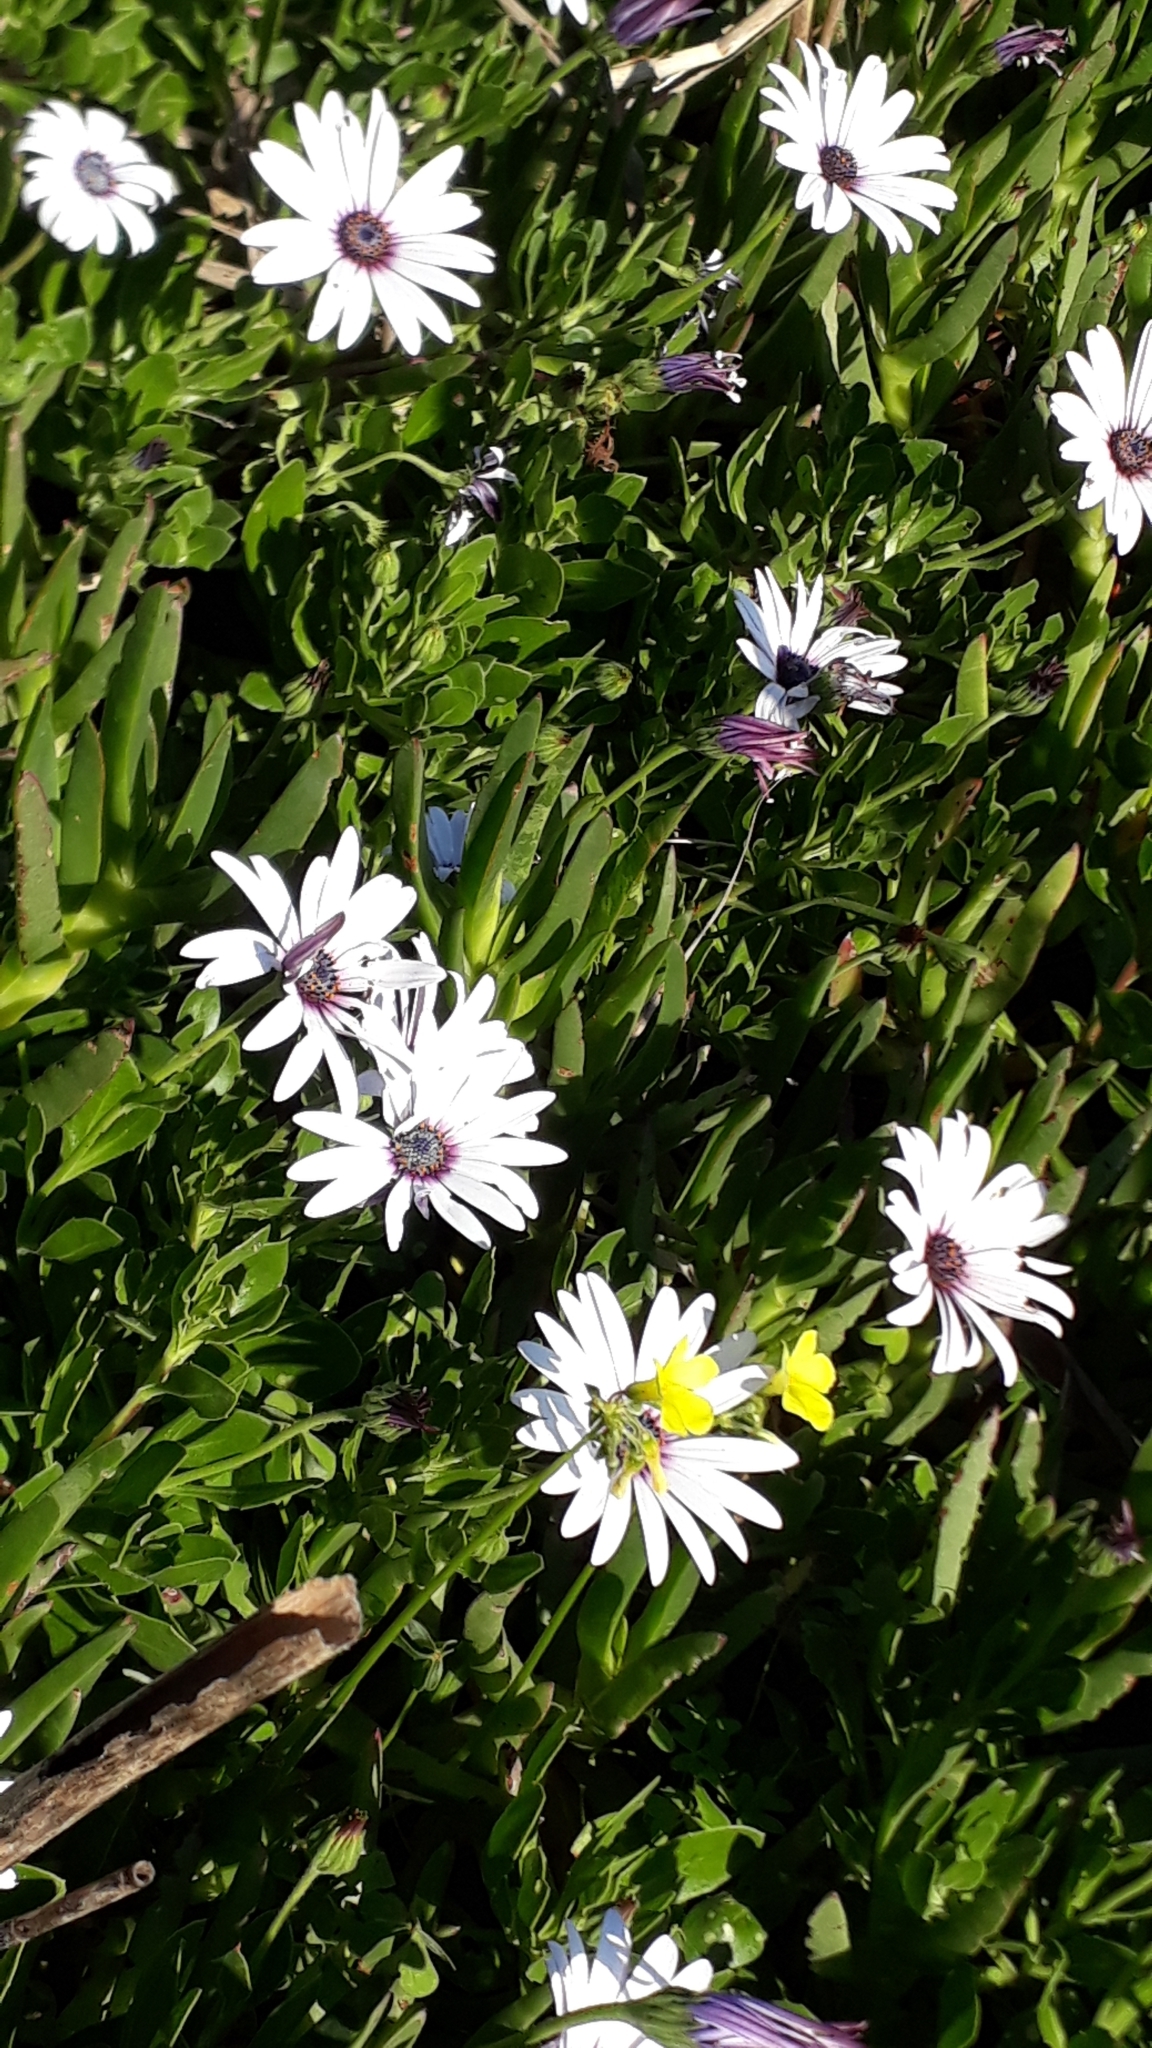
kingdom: Plantae
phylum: Tracheophyta
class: Magnoliopsida
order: Asterales
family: Asteraceae
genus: Dimorphotheca
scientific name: Dimorphotheca fruticosa
